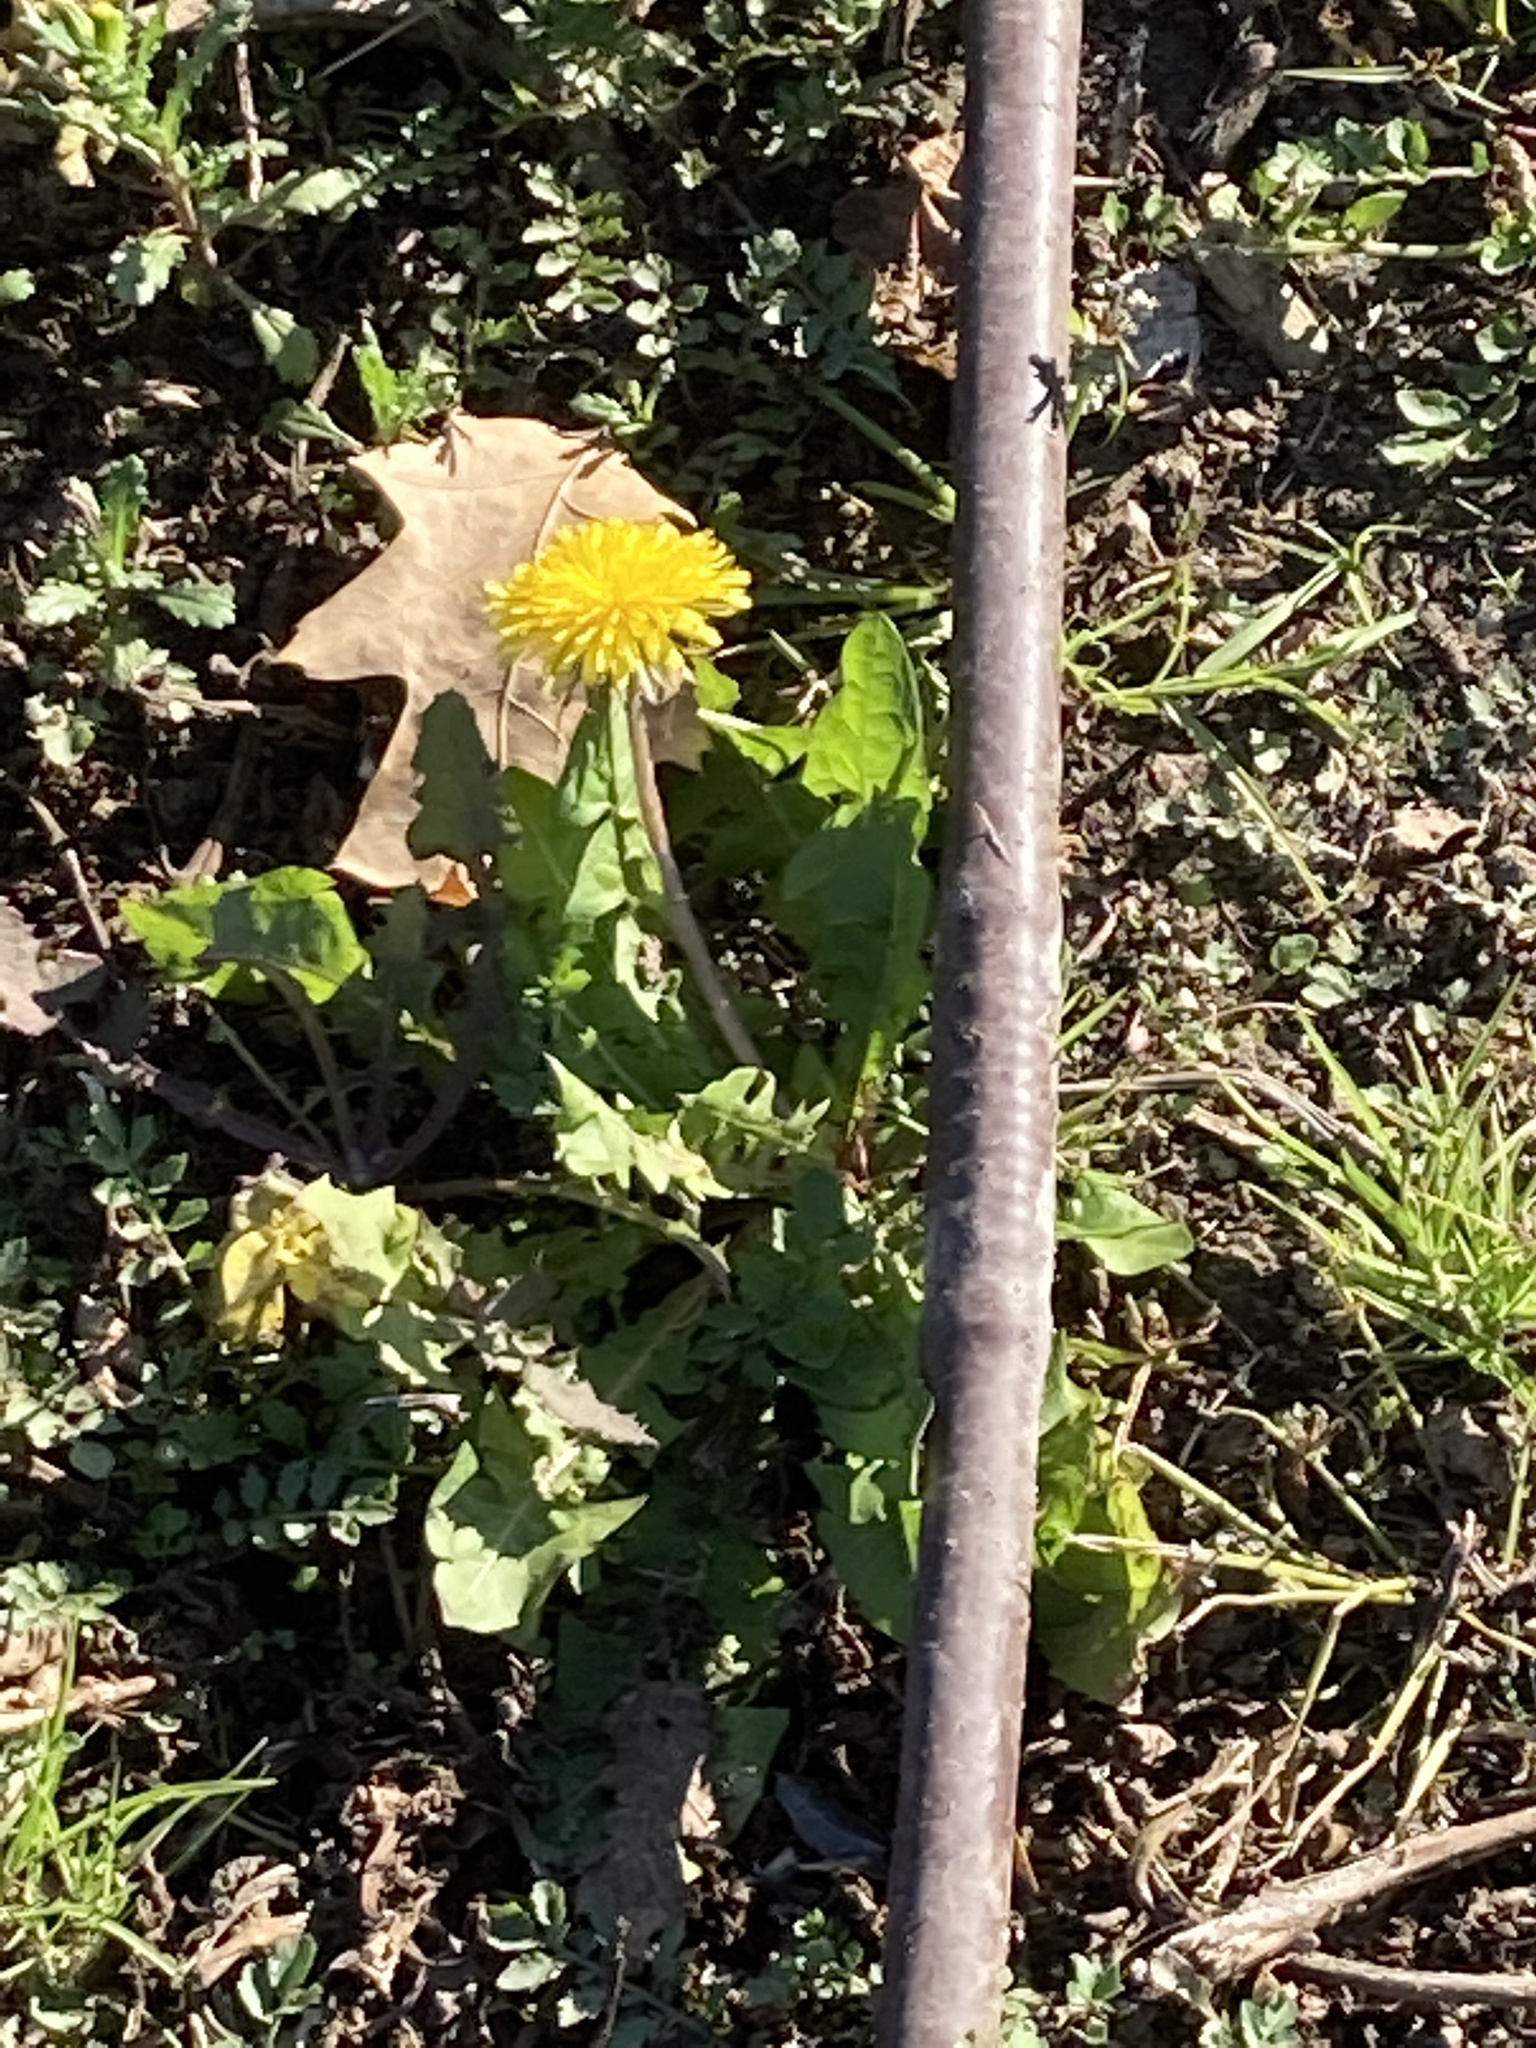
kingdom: Plantae
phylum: Tracheophyta
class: Magnoliopsida
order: Asterales
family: Asteraceae
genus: Taraxacum
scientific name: Taraxacum officinale
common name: Common dandelion
